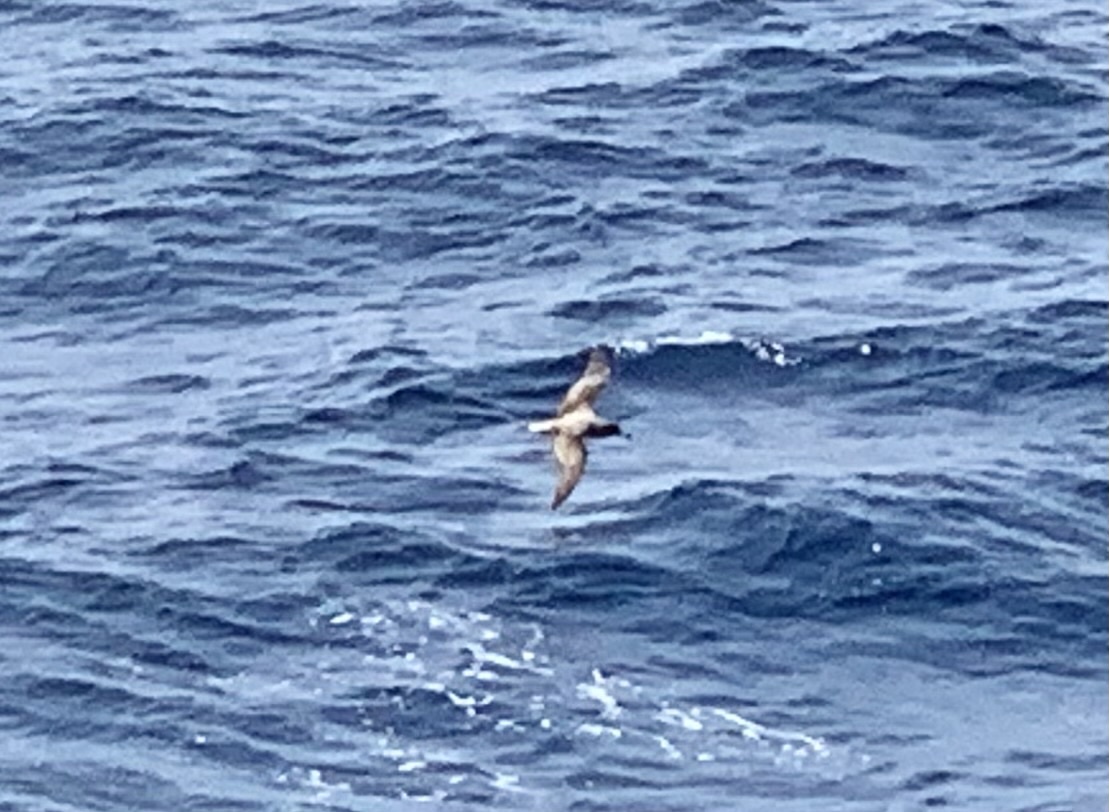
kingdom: Animalia
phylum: Chordata
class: Aves
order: Procellariiformes
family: Procellariidae
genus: Calonectris
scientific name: Calonectris diomedea
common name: Cory's shearwater
